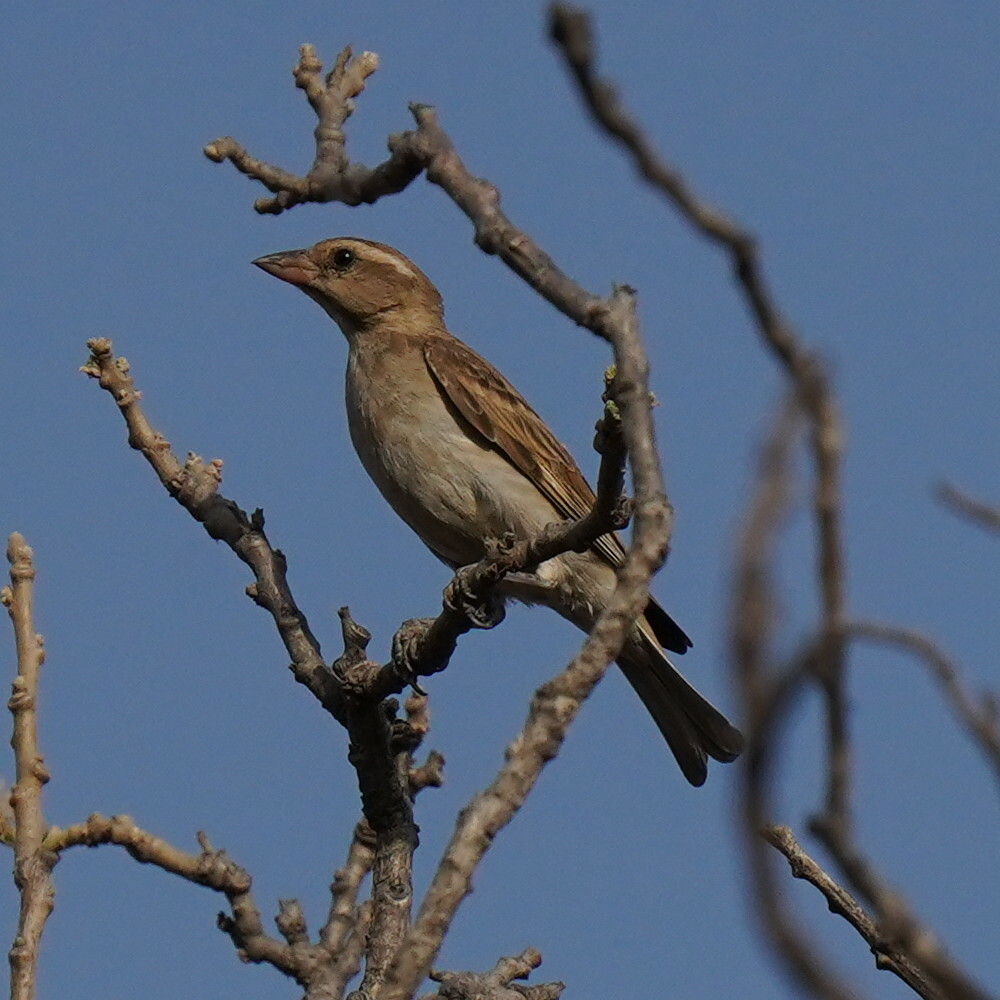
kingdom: Animalia
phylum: Chordata
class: Aves
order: Passeriformes
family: Passeridae
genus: Gymnoris
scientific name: Gymnoris dentata
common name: Bush petronia
